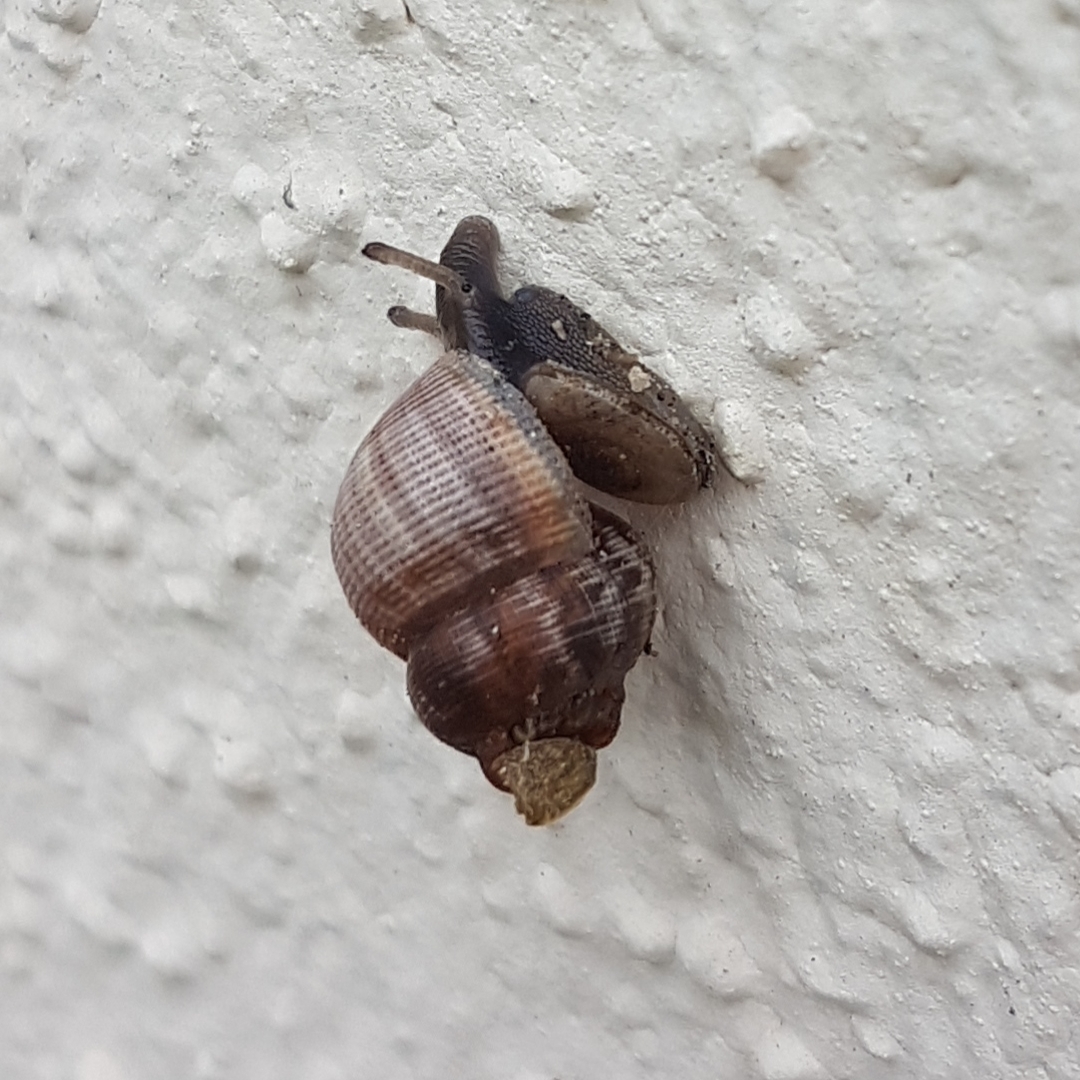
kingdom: Animalia
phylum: Mollusca
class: Gastropoda
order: Littorinimorpha
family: Pomatiidae
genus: Pomatias
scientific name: Pomatias elegans
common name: Red-mouthed snail
